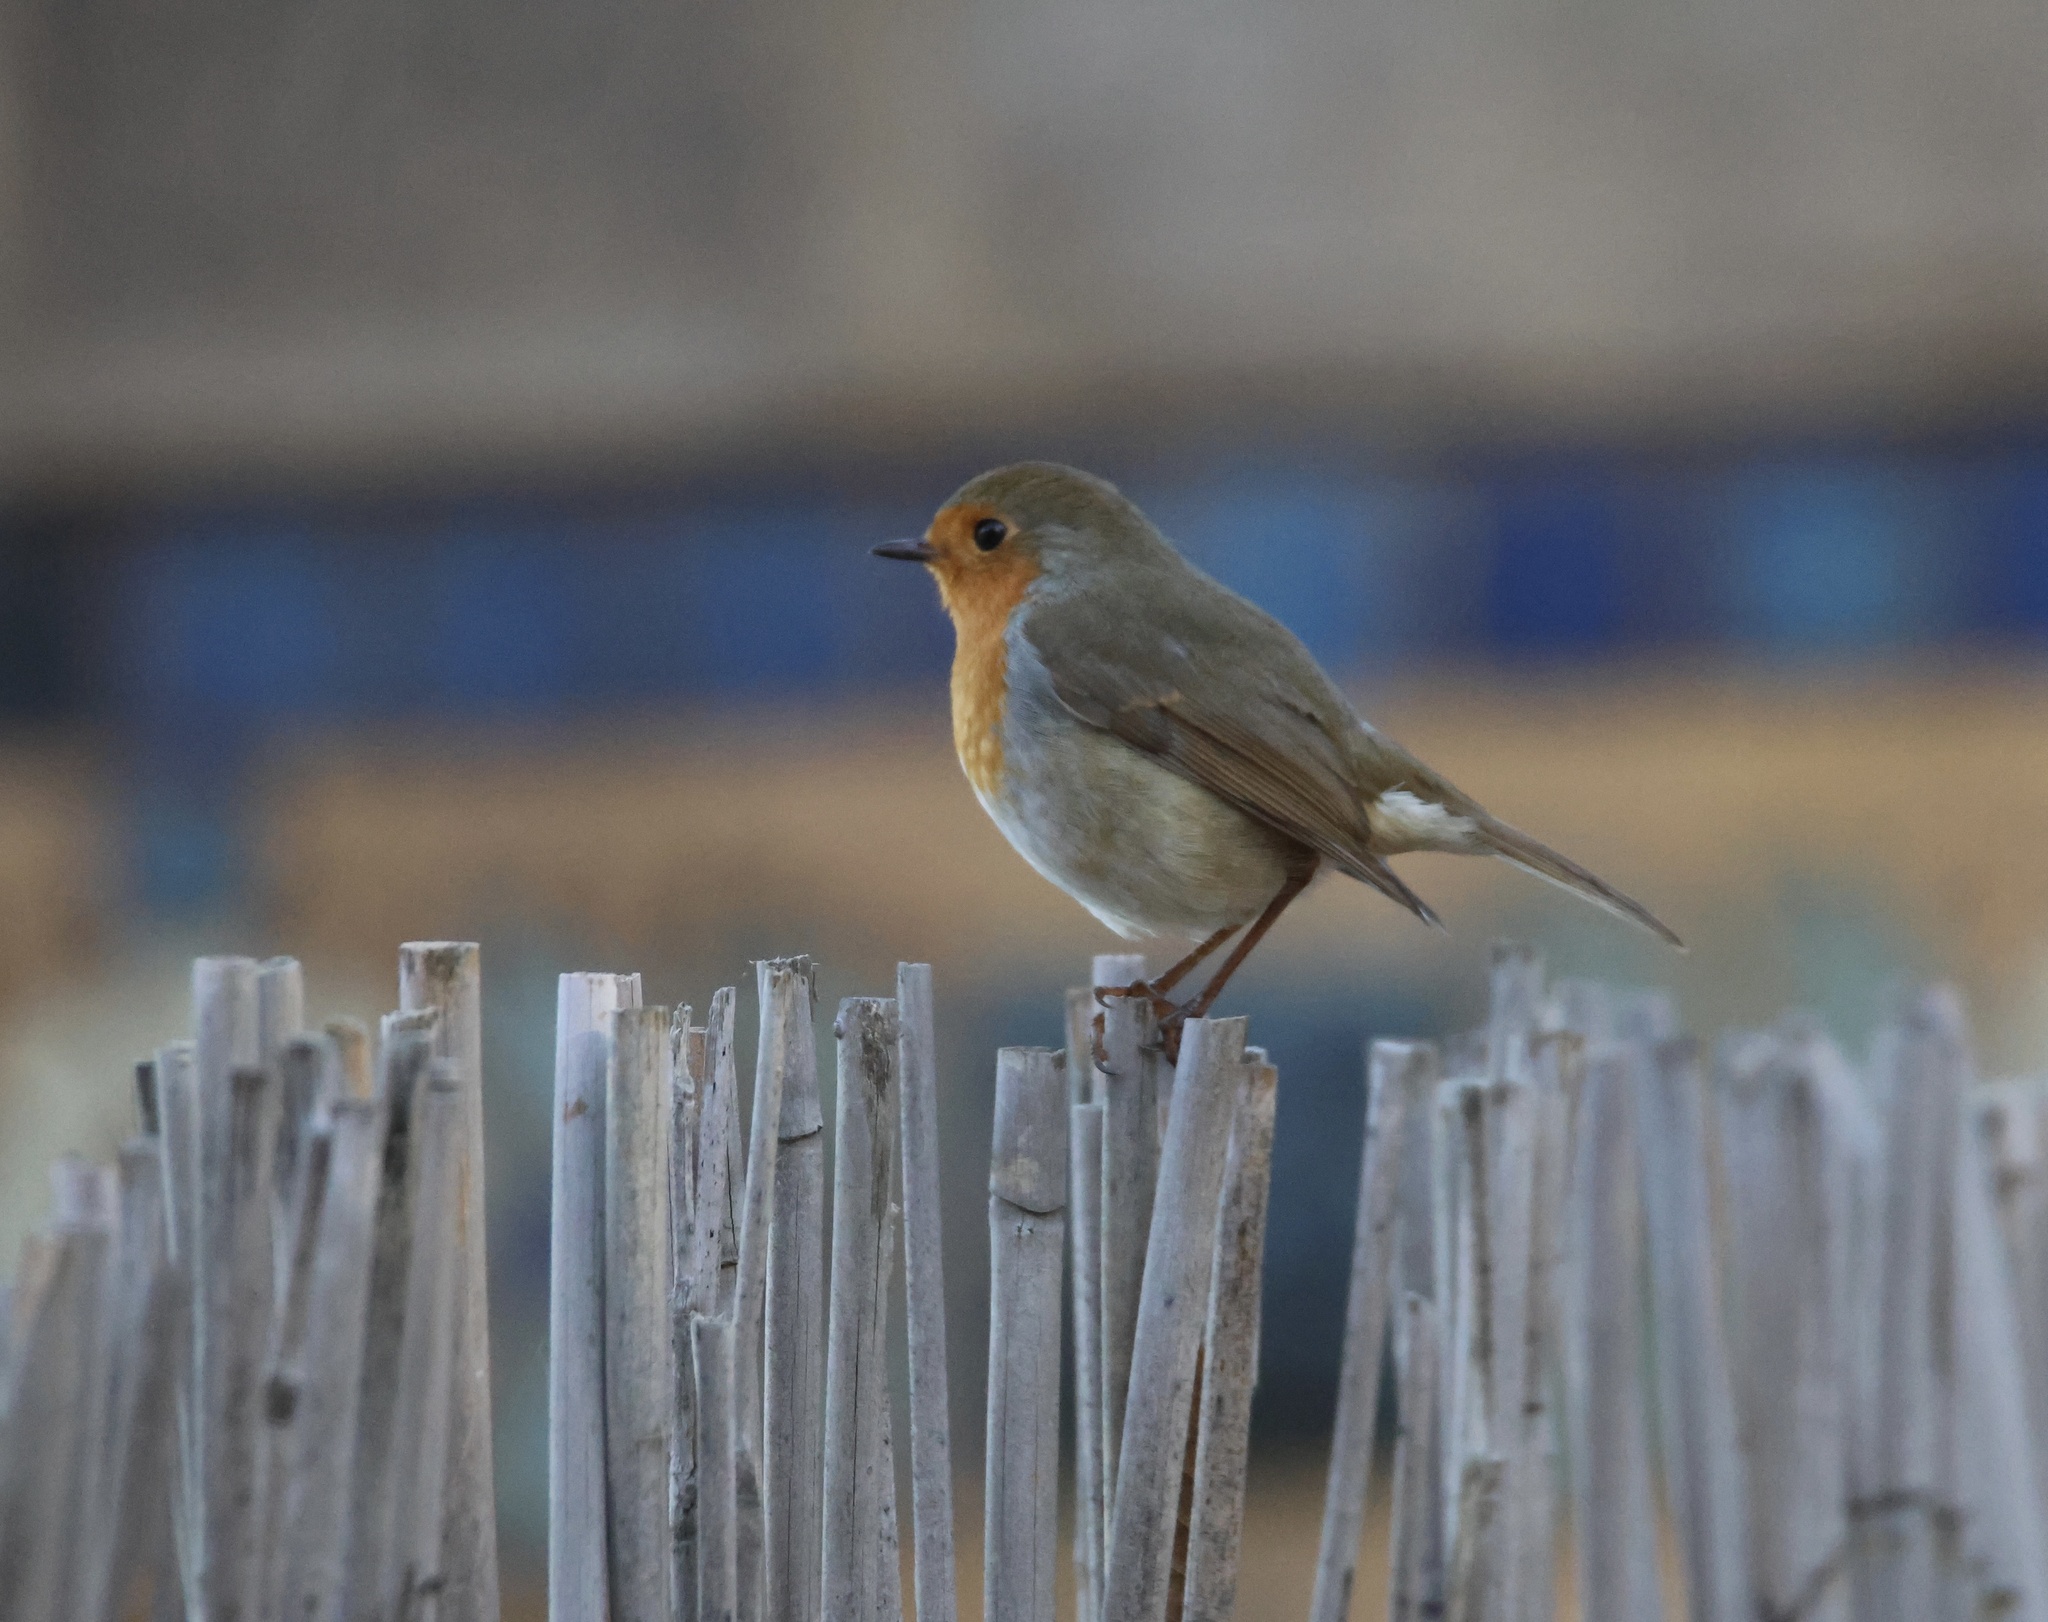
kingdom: Animalia
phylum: Chordata
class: Aves
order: Passeriformes
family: Muscicapidae
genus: Erithacus
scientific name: Erithacus rubecula
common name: European robin
